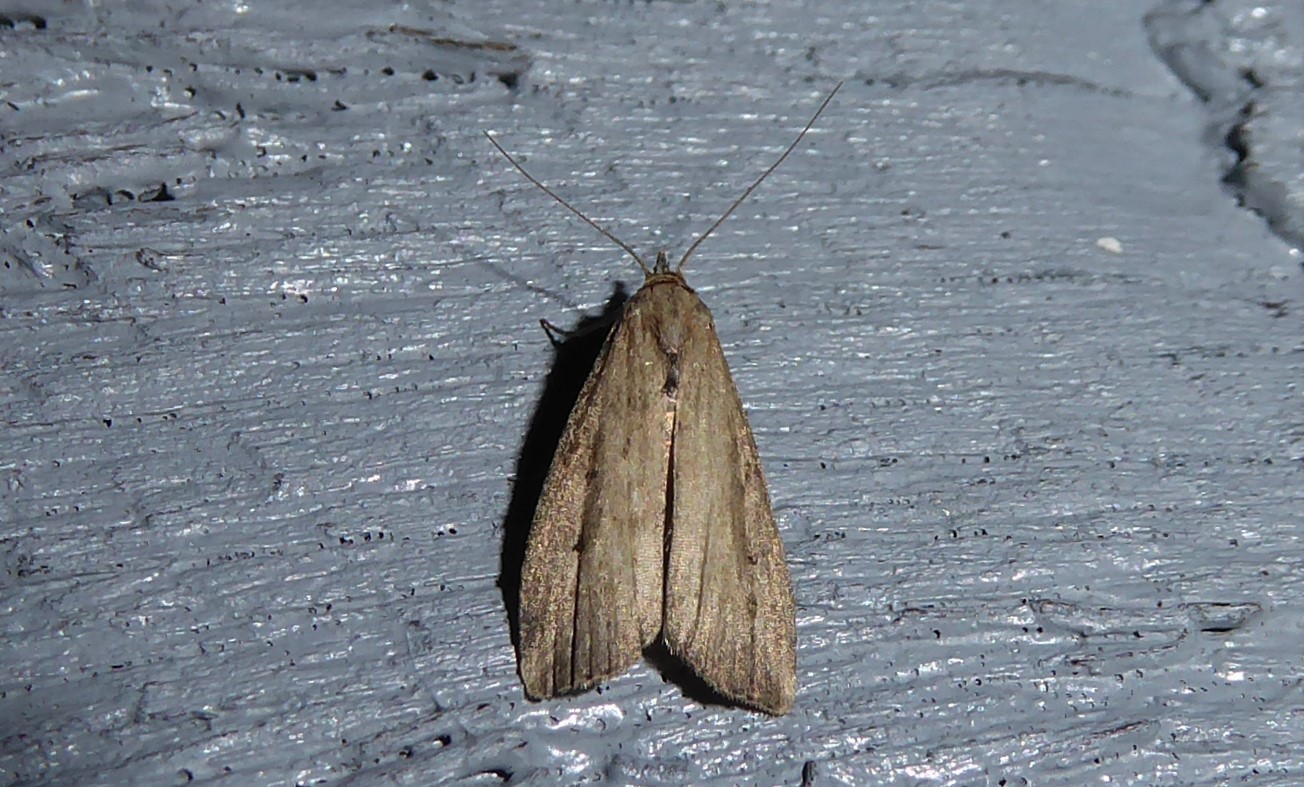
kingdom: Animalia
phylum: Arthropoda
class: Insecta
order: Lepidoptera
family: Erebidae
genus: Schrankia
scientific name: Schrankia costaestrigalis
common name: Pinion-streaked snout
